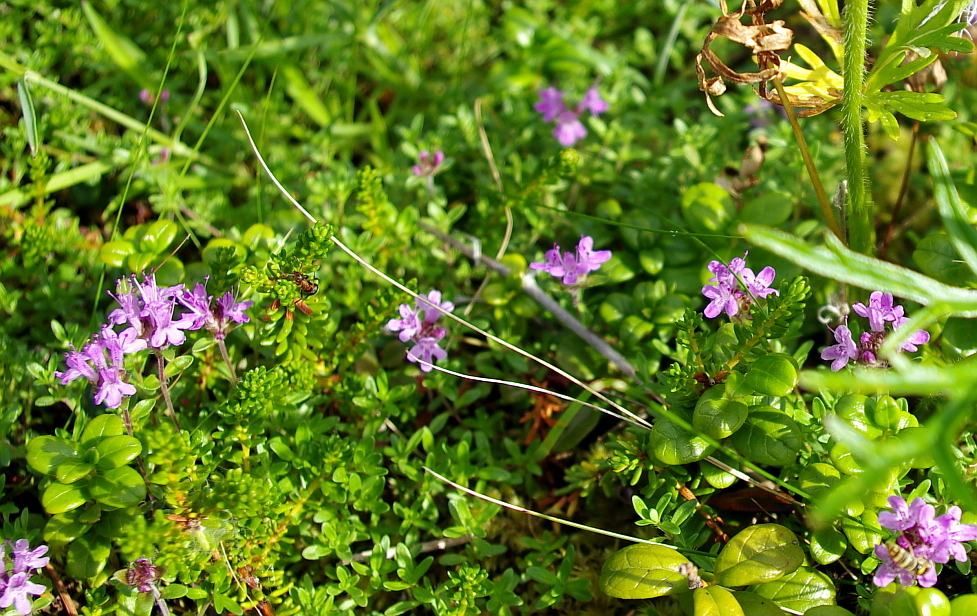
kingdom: Plantae
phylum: Tracheophyta
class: Magnoliopsida
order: Lamiales
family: Lamiaceae
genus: Thymus
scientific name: Thymus serpyllum
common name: Breckland thyme
